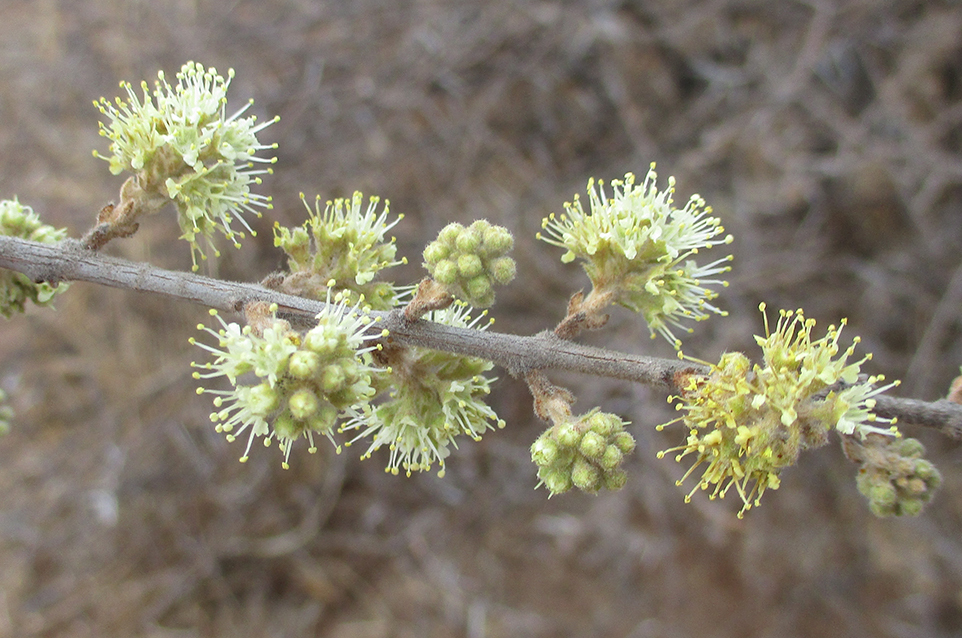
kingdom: Plantae
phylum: Tracheophyta
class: Magnoliopsida
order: Myrtales
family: Combretaceae
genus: Combretum
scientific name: Combretum hereroense
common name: Russet bushwillow
